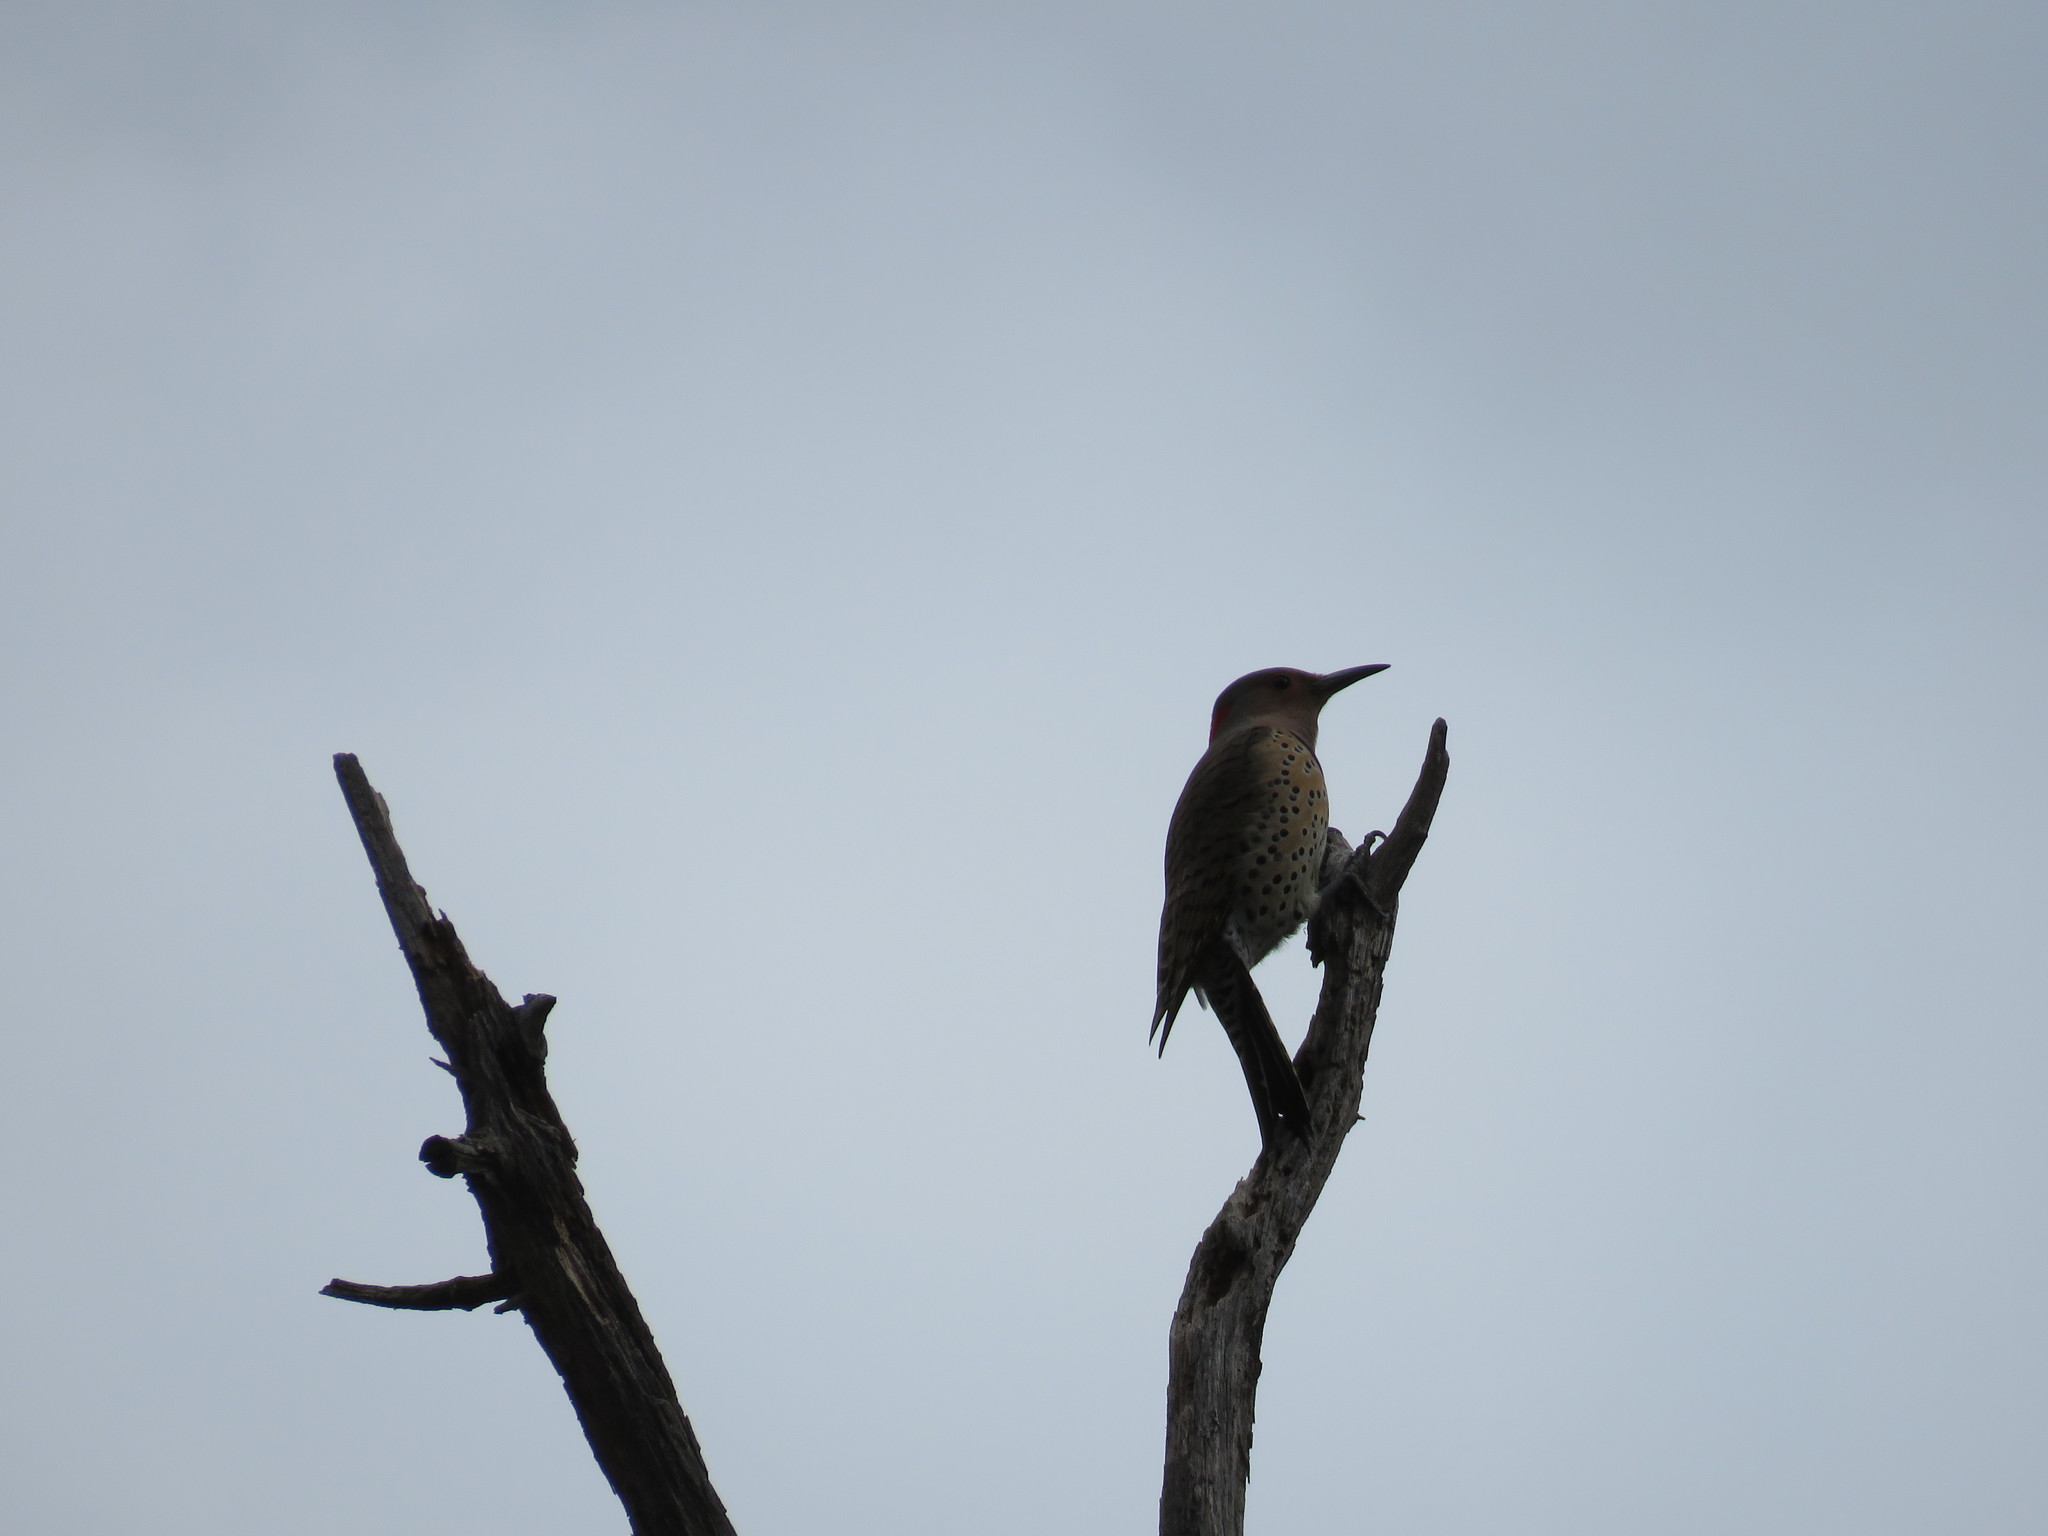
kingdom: Animalia
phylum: Chordata
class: Aves
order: Piciformes
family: Picidae
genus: Colaptes
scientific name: Colaptes auratus
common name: Northern flicker
